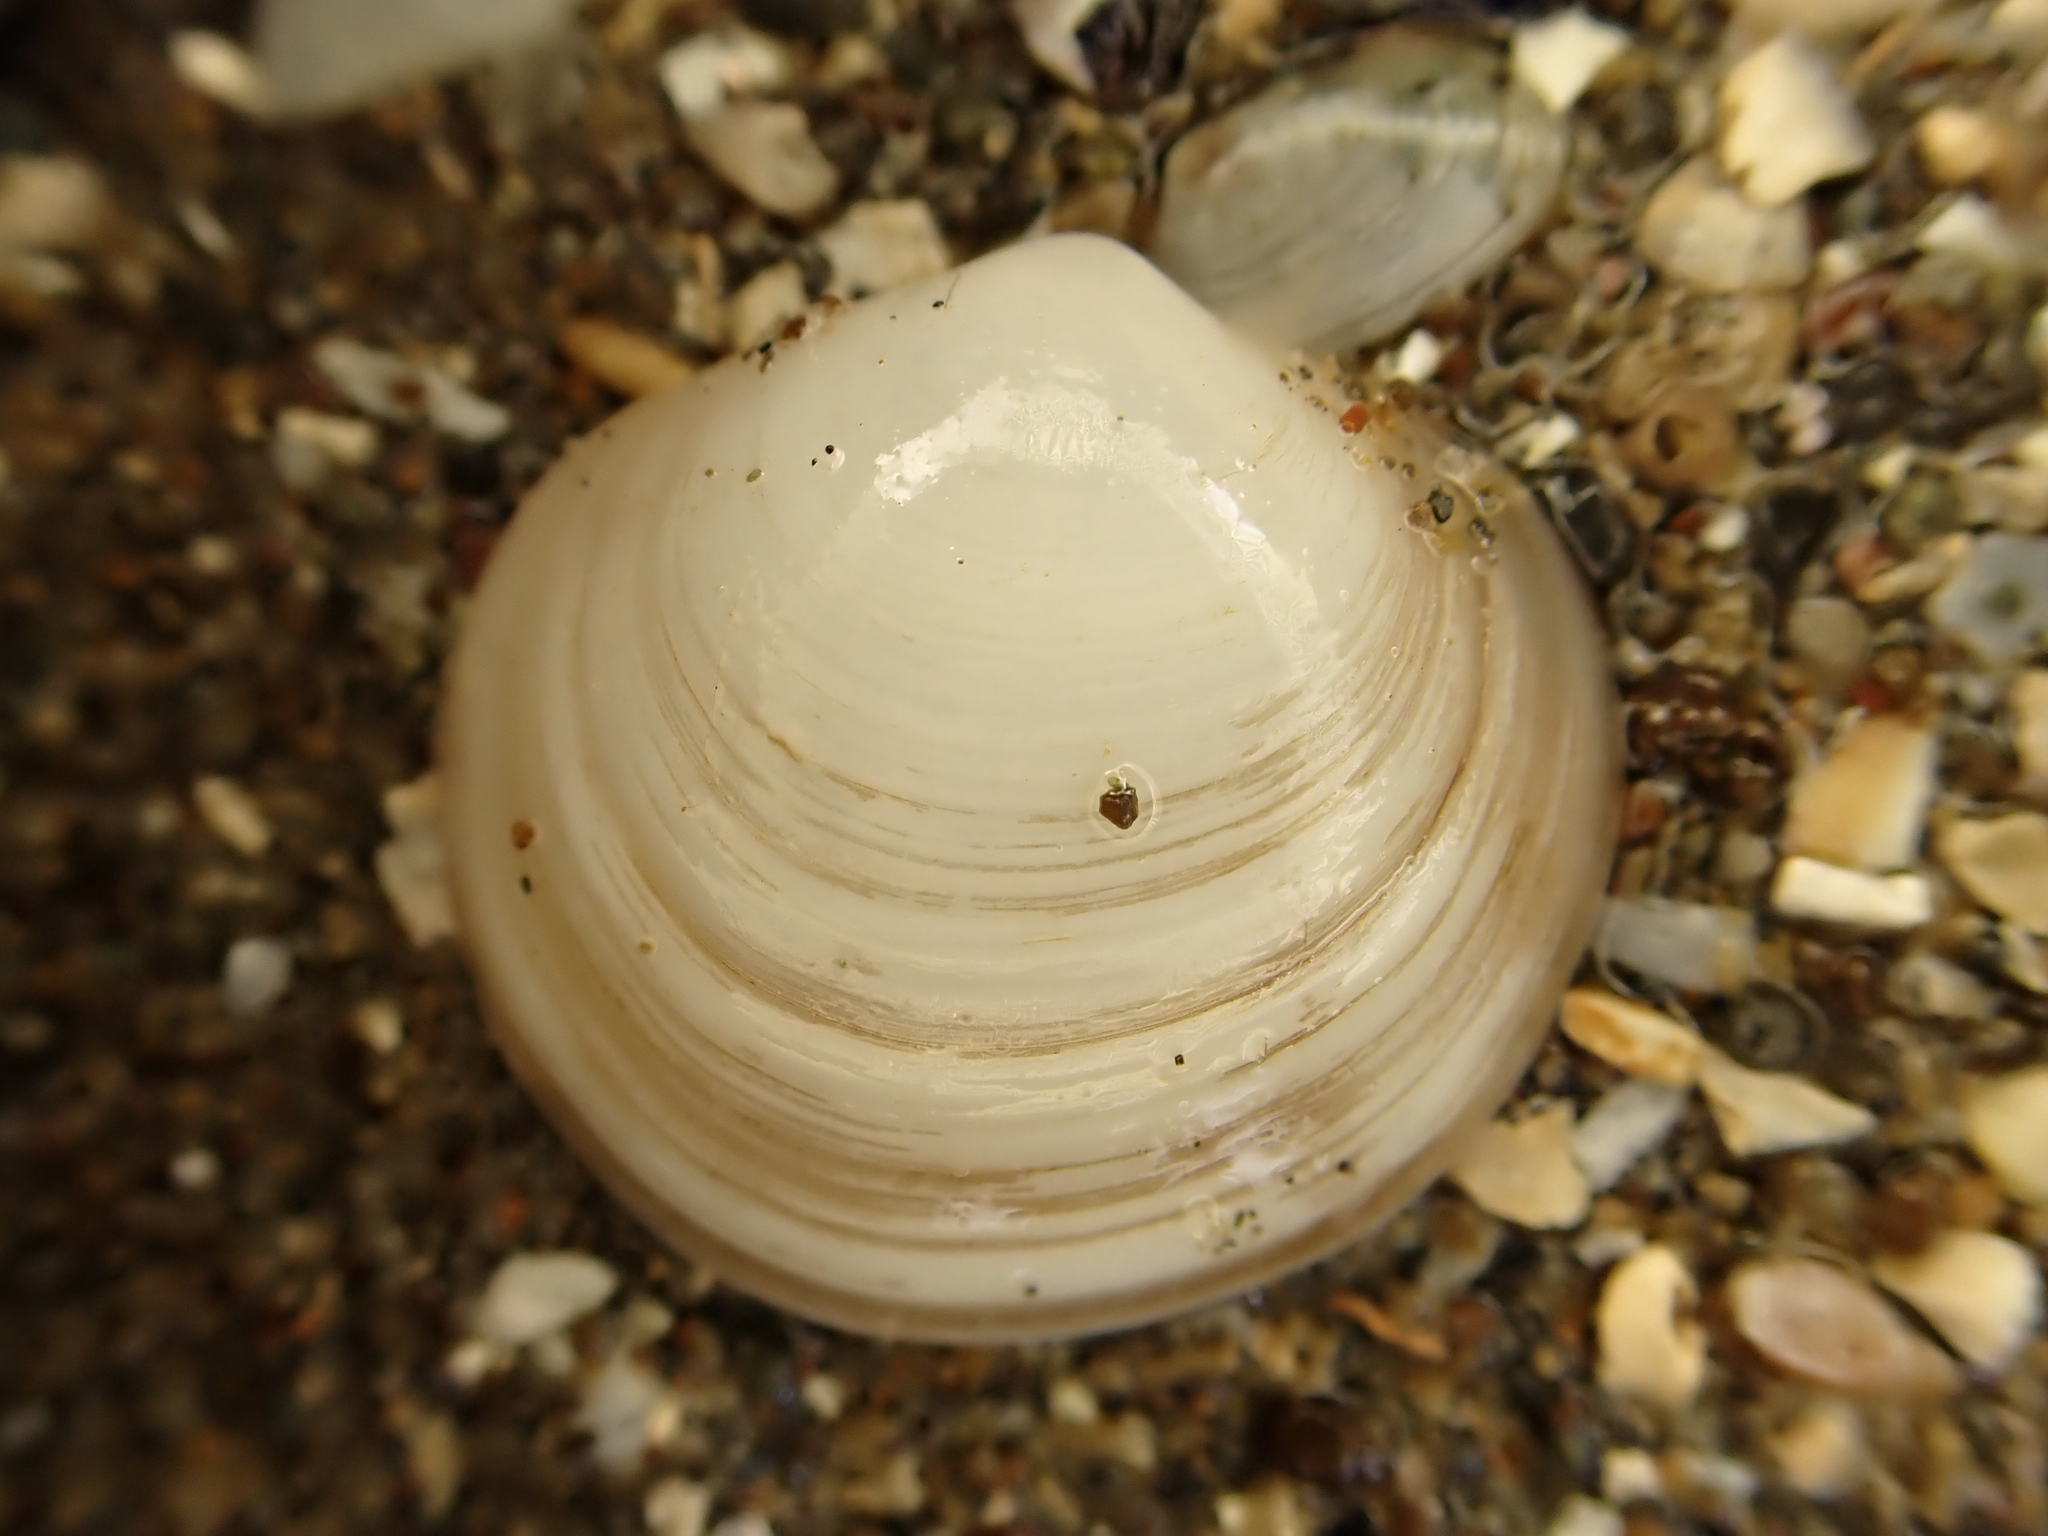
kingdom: Animalia
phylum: Mollusca
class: Bivalvia
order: Venerida
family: Ungulinidae
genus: Zemysia
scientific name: Zemysia zelandica
